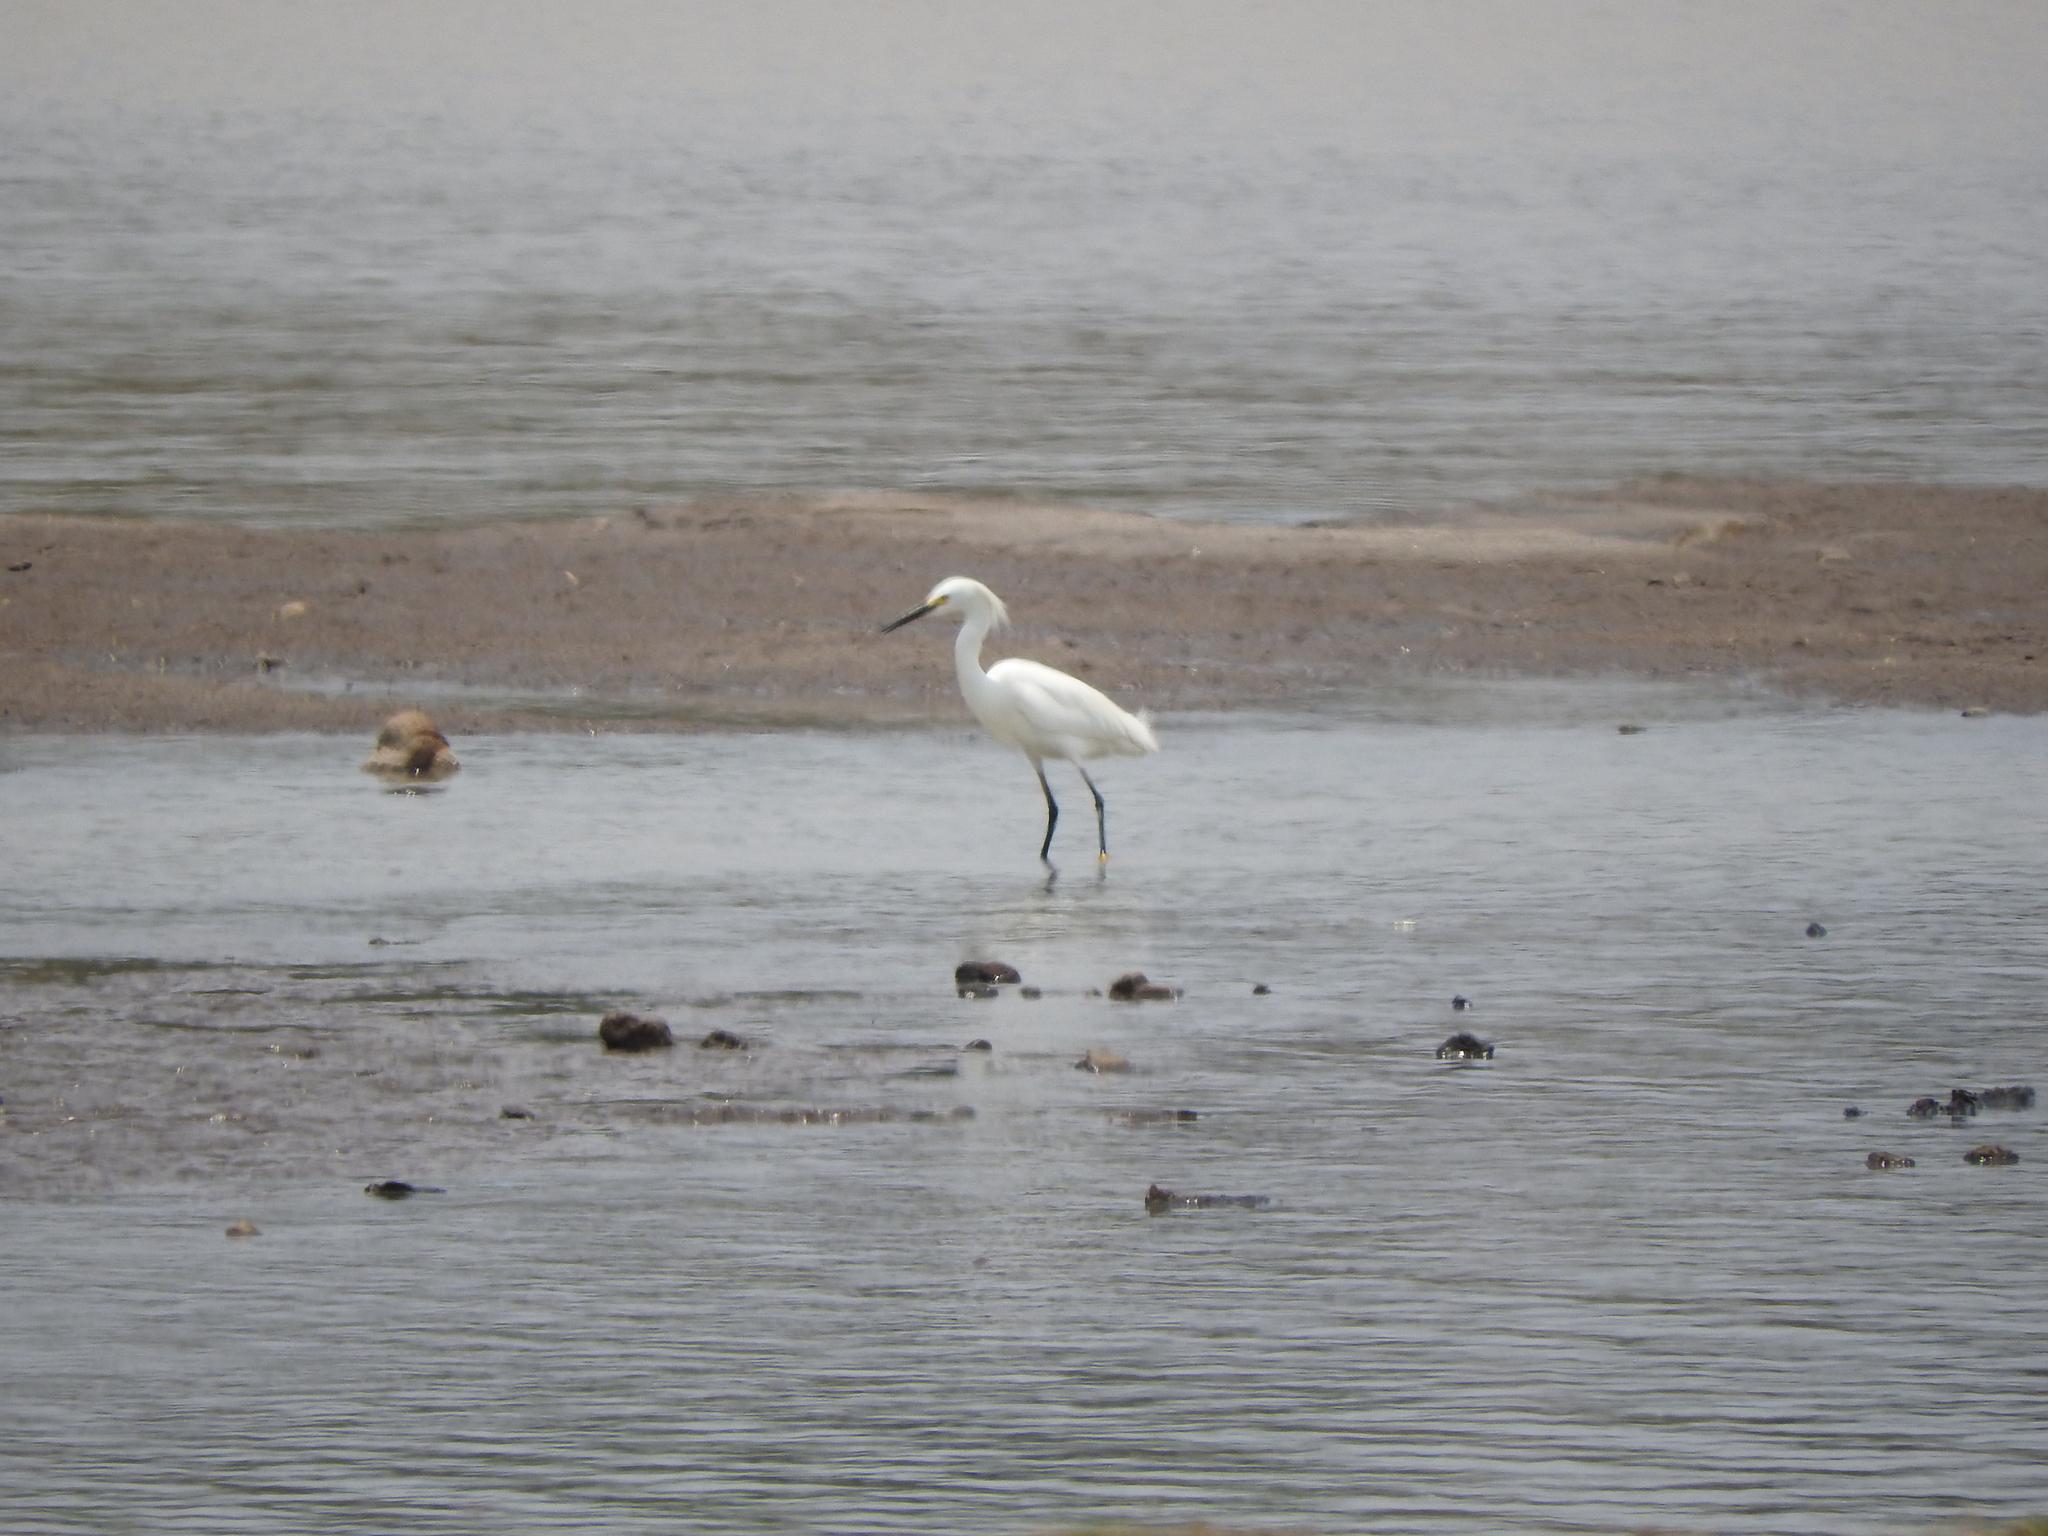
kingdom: Animalia
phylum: Chordata
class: Aves
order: Pelecaniformes
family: Ardeidae
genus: Egretta
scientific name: Egretta thula
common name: Snowy egret
